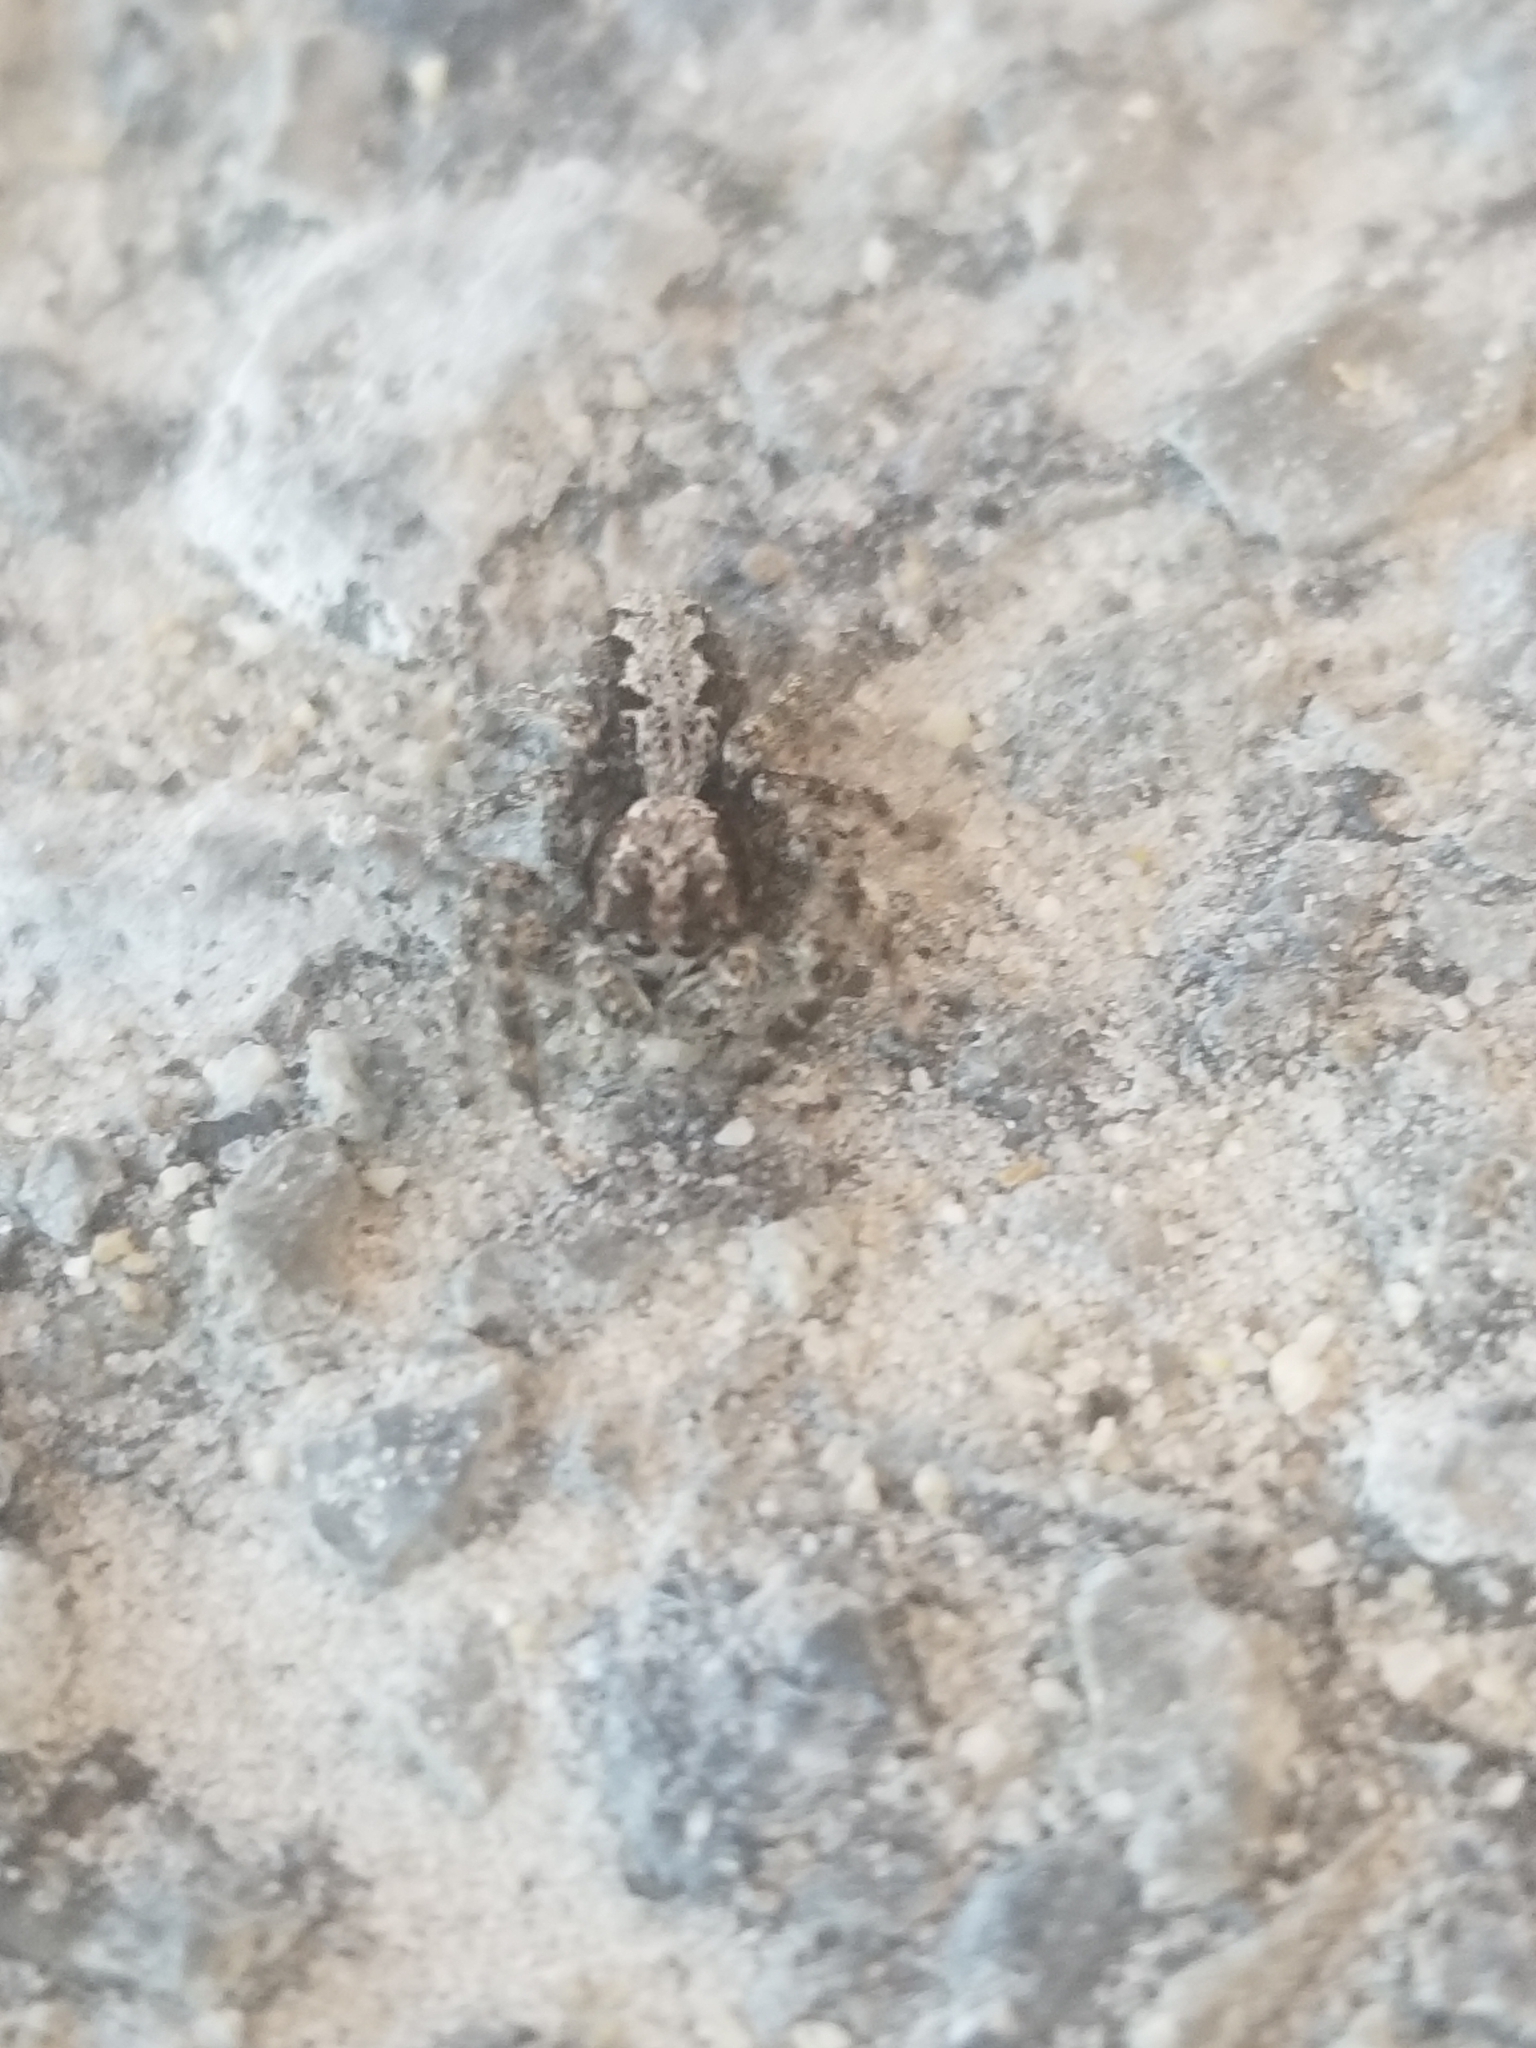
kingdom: Animalia
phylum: Arthropoda
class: Arachnida
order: Araneae
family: Salticidae
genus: Platycryptus
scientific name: Platycryptus californicus
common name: Jumping spiders
